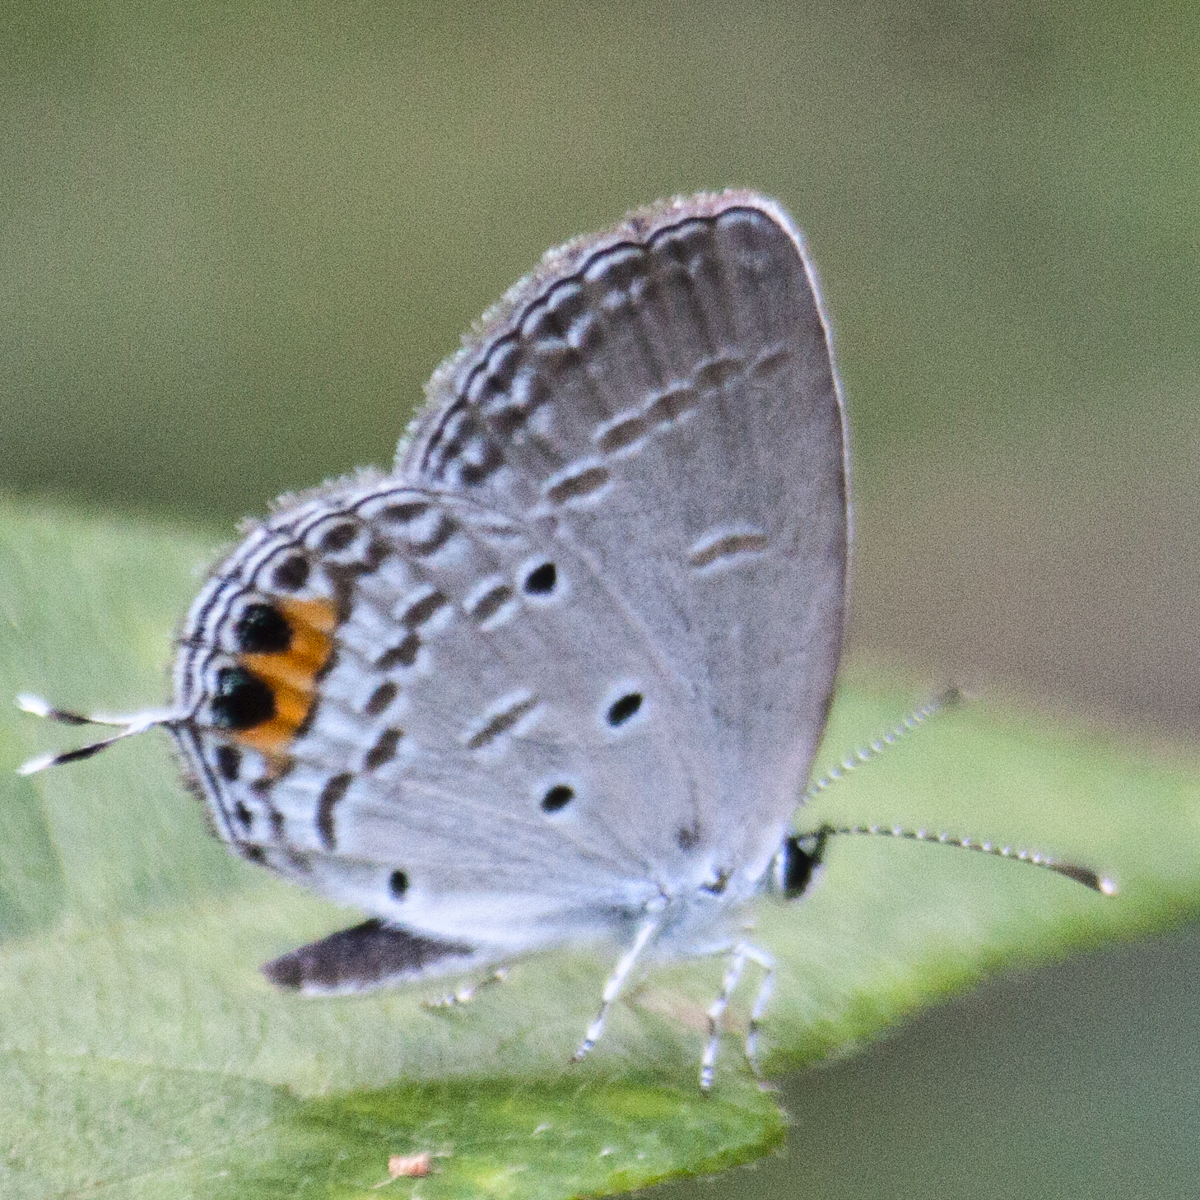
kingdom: Animalia
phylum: Arthropoda
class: Insecta
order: Lepidoptera
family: Lycaenidae
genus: Everes
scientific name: Everes lacturnus
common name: Orange-tipped pea-blue
